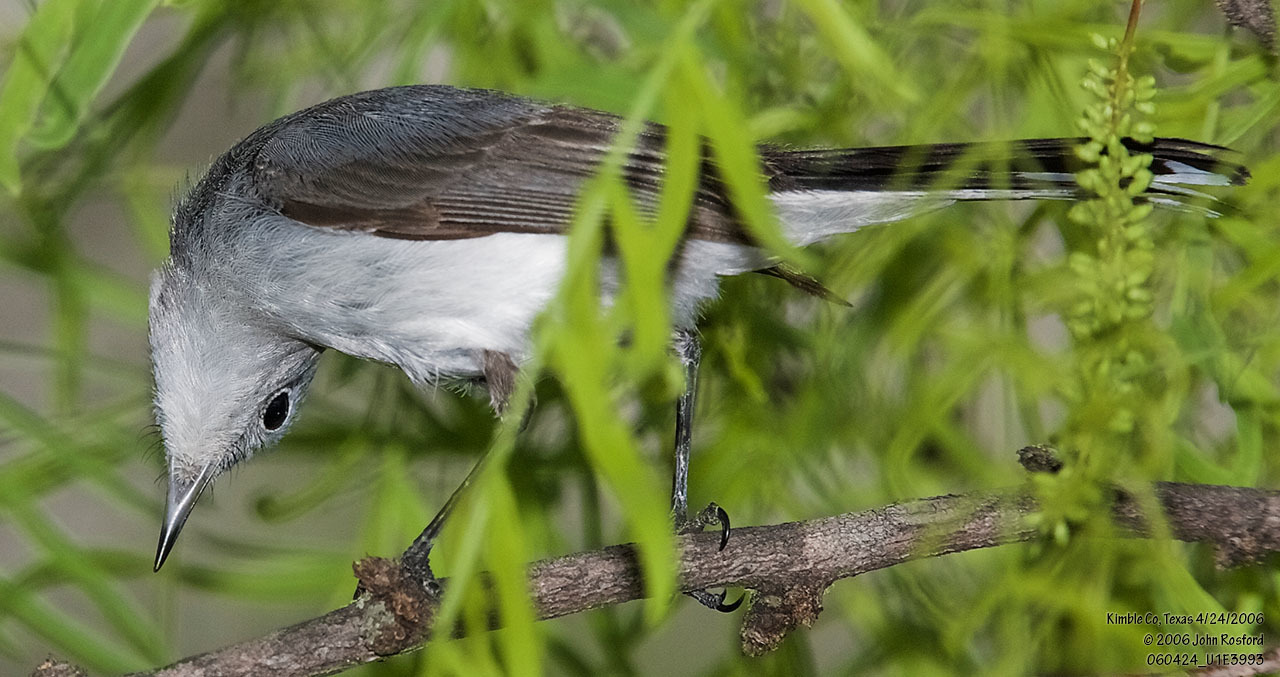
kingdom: Animalia
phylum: Chordata
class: Aves
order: Passeriformes
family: Polioptilidae
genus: Polioptila
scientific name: Polioptila caerulea
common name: Blue-gray gnatcatcher
